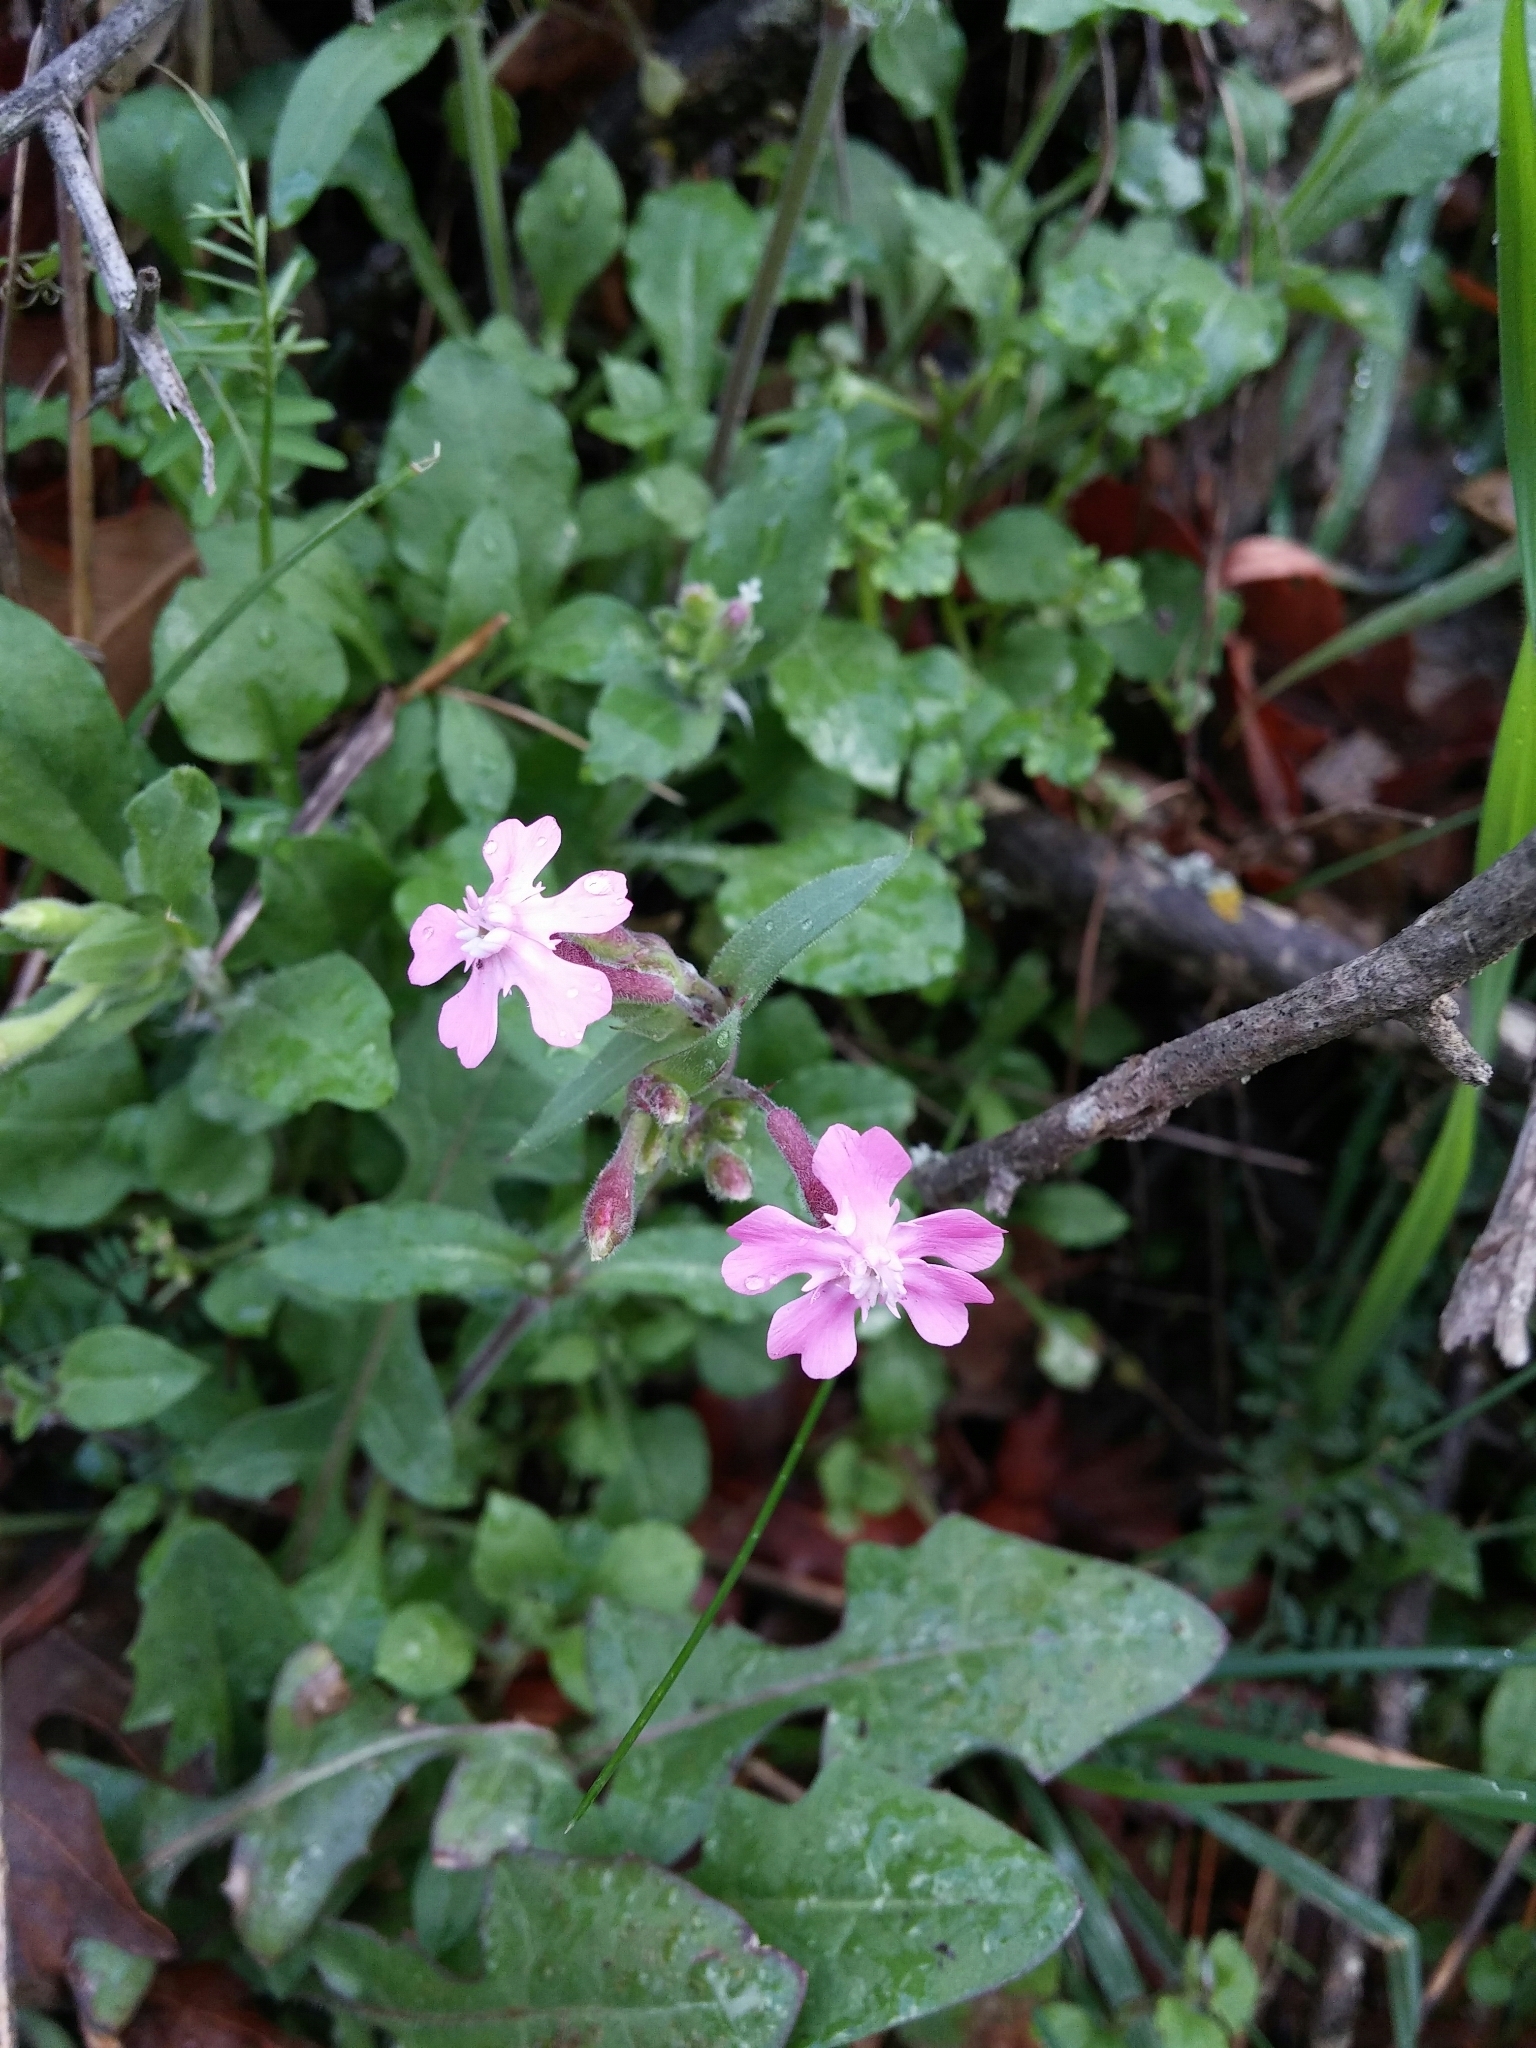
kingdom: Plantae
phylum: Tracheophyta
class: Magnoliopsida
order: Caryophyllales
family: Caryophyllaceae
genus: Silene
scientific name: Silene aegyptiaca
